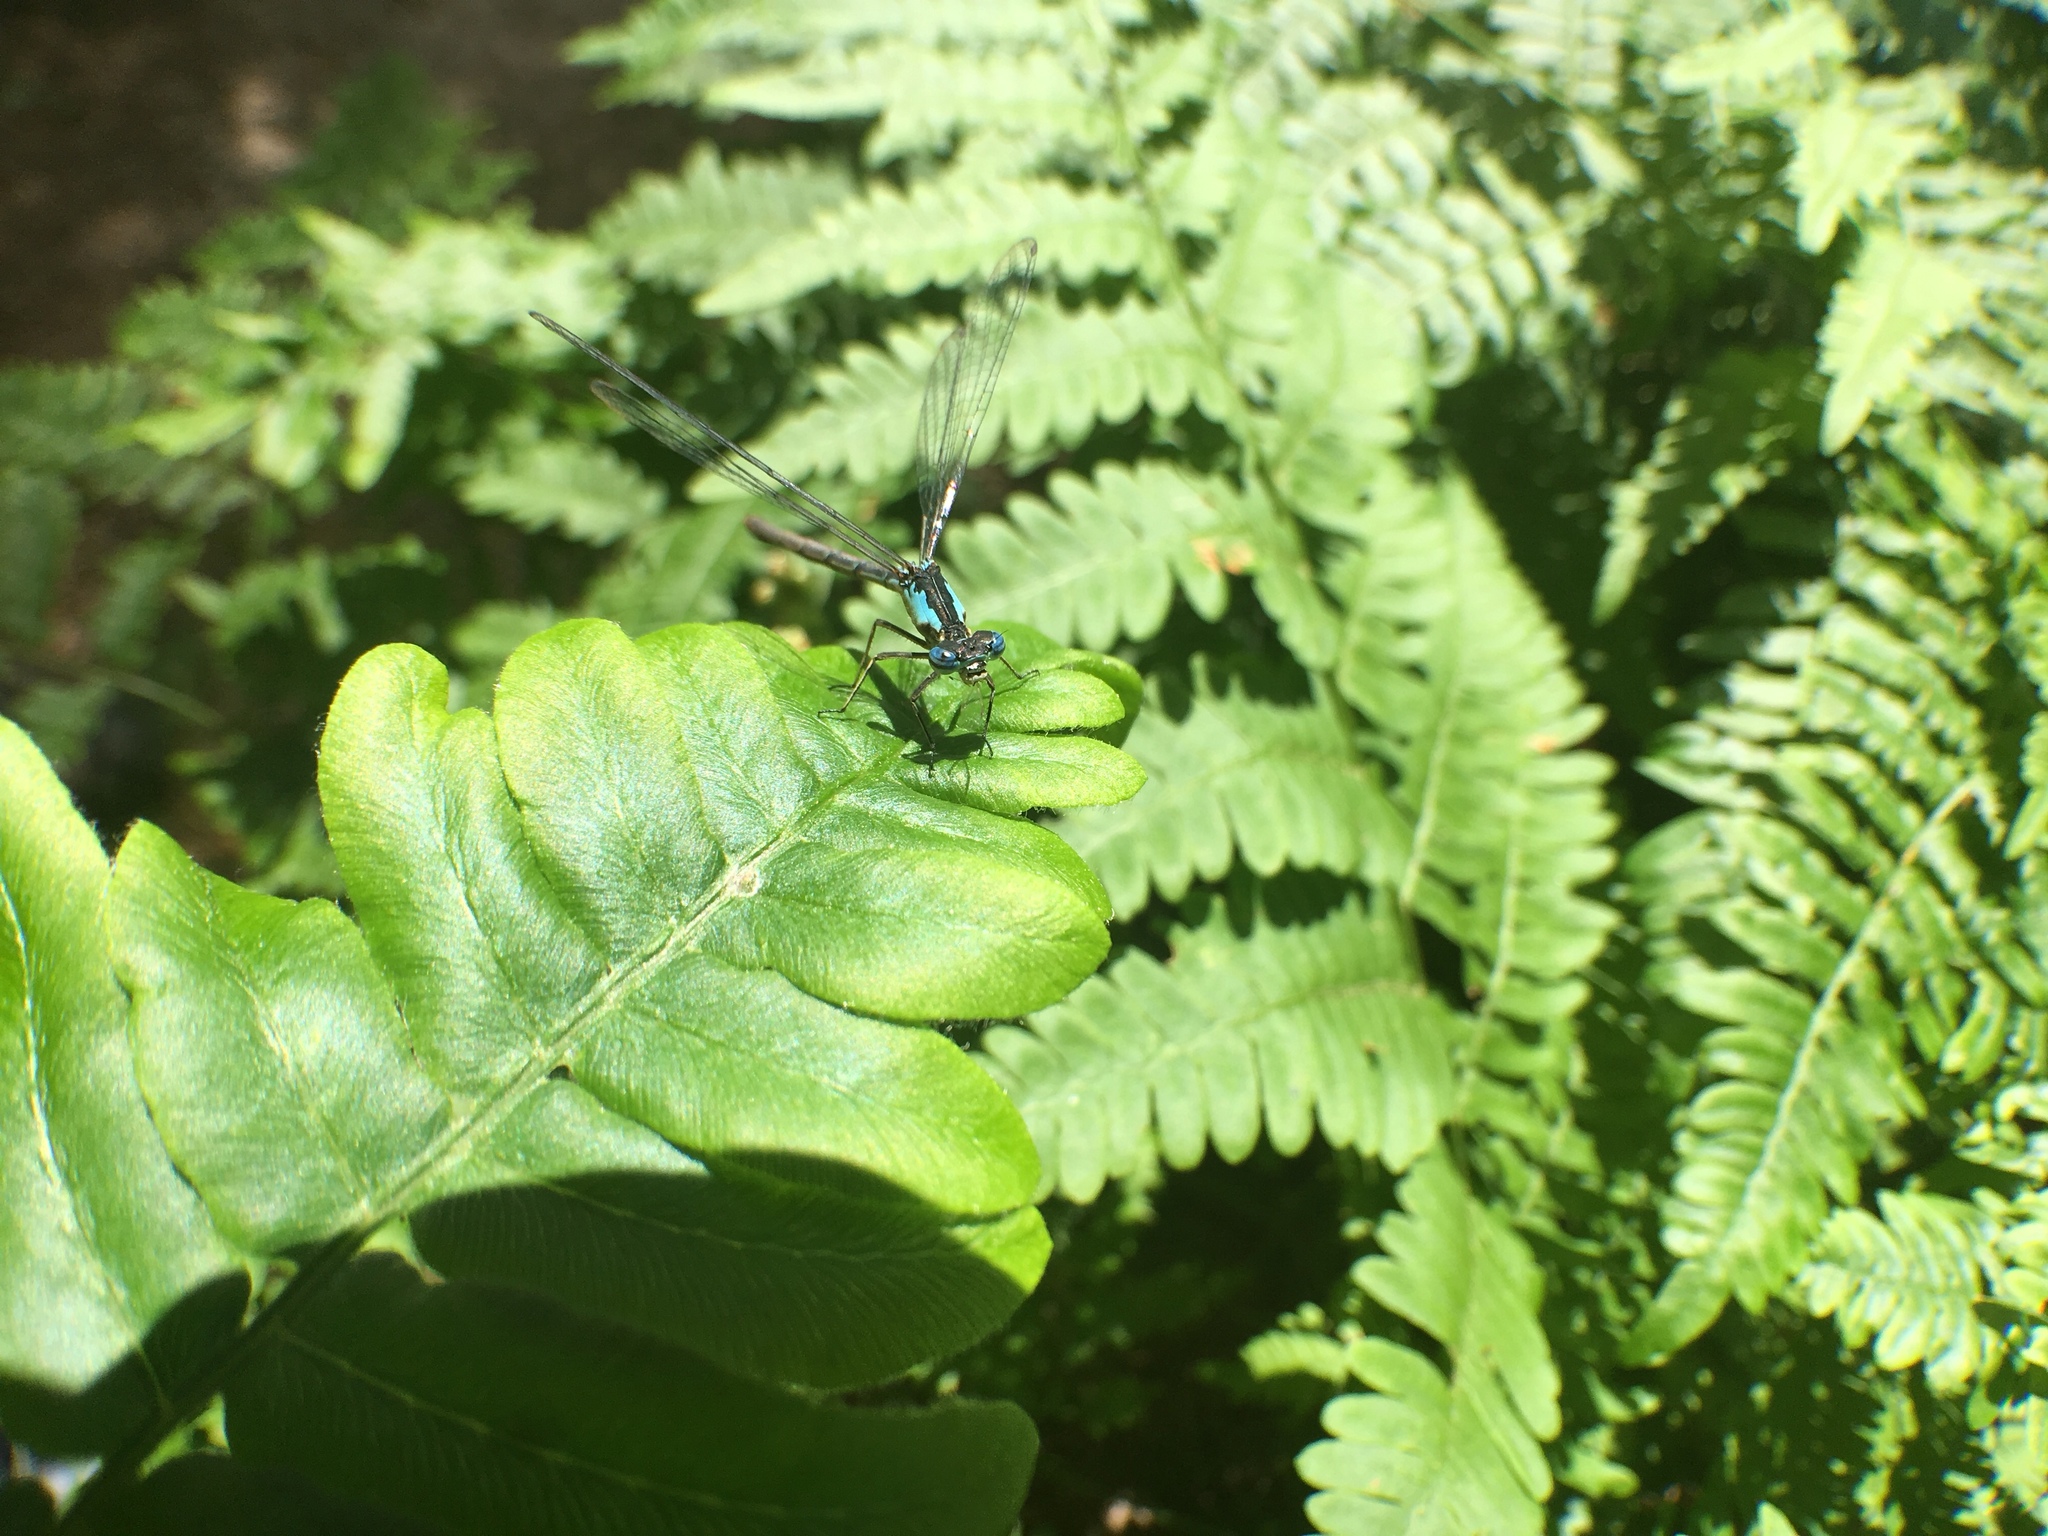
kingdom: Animalia
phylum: Arthropoda
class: Insecta
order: Odonata
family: Coenagrionidae
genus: Chromagrion
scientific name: Chromagrion conditum
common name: Aurora damsel
